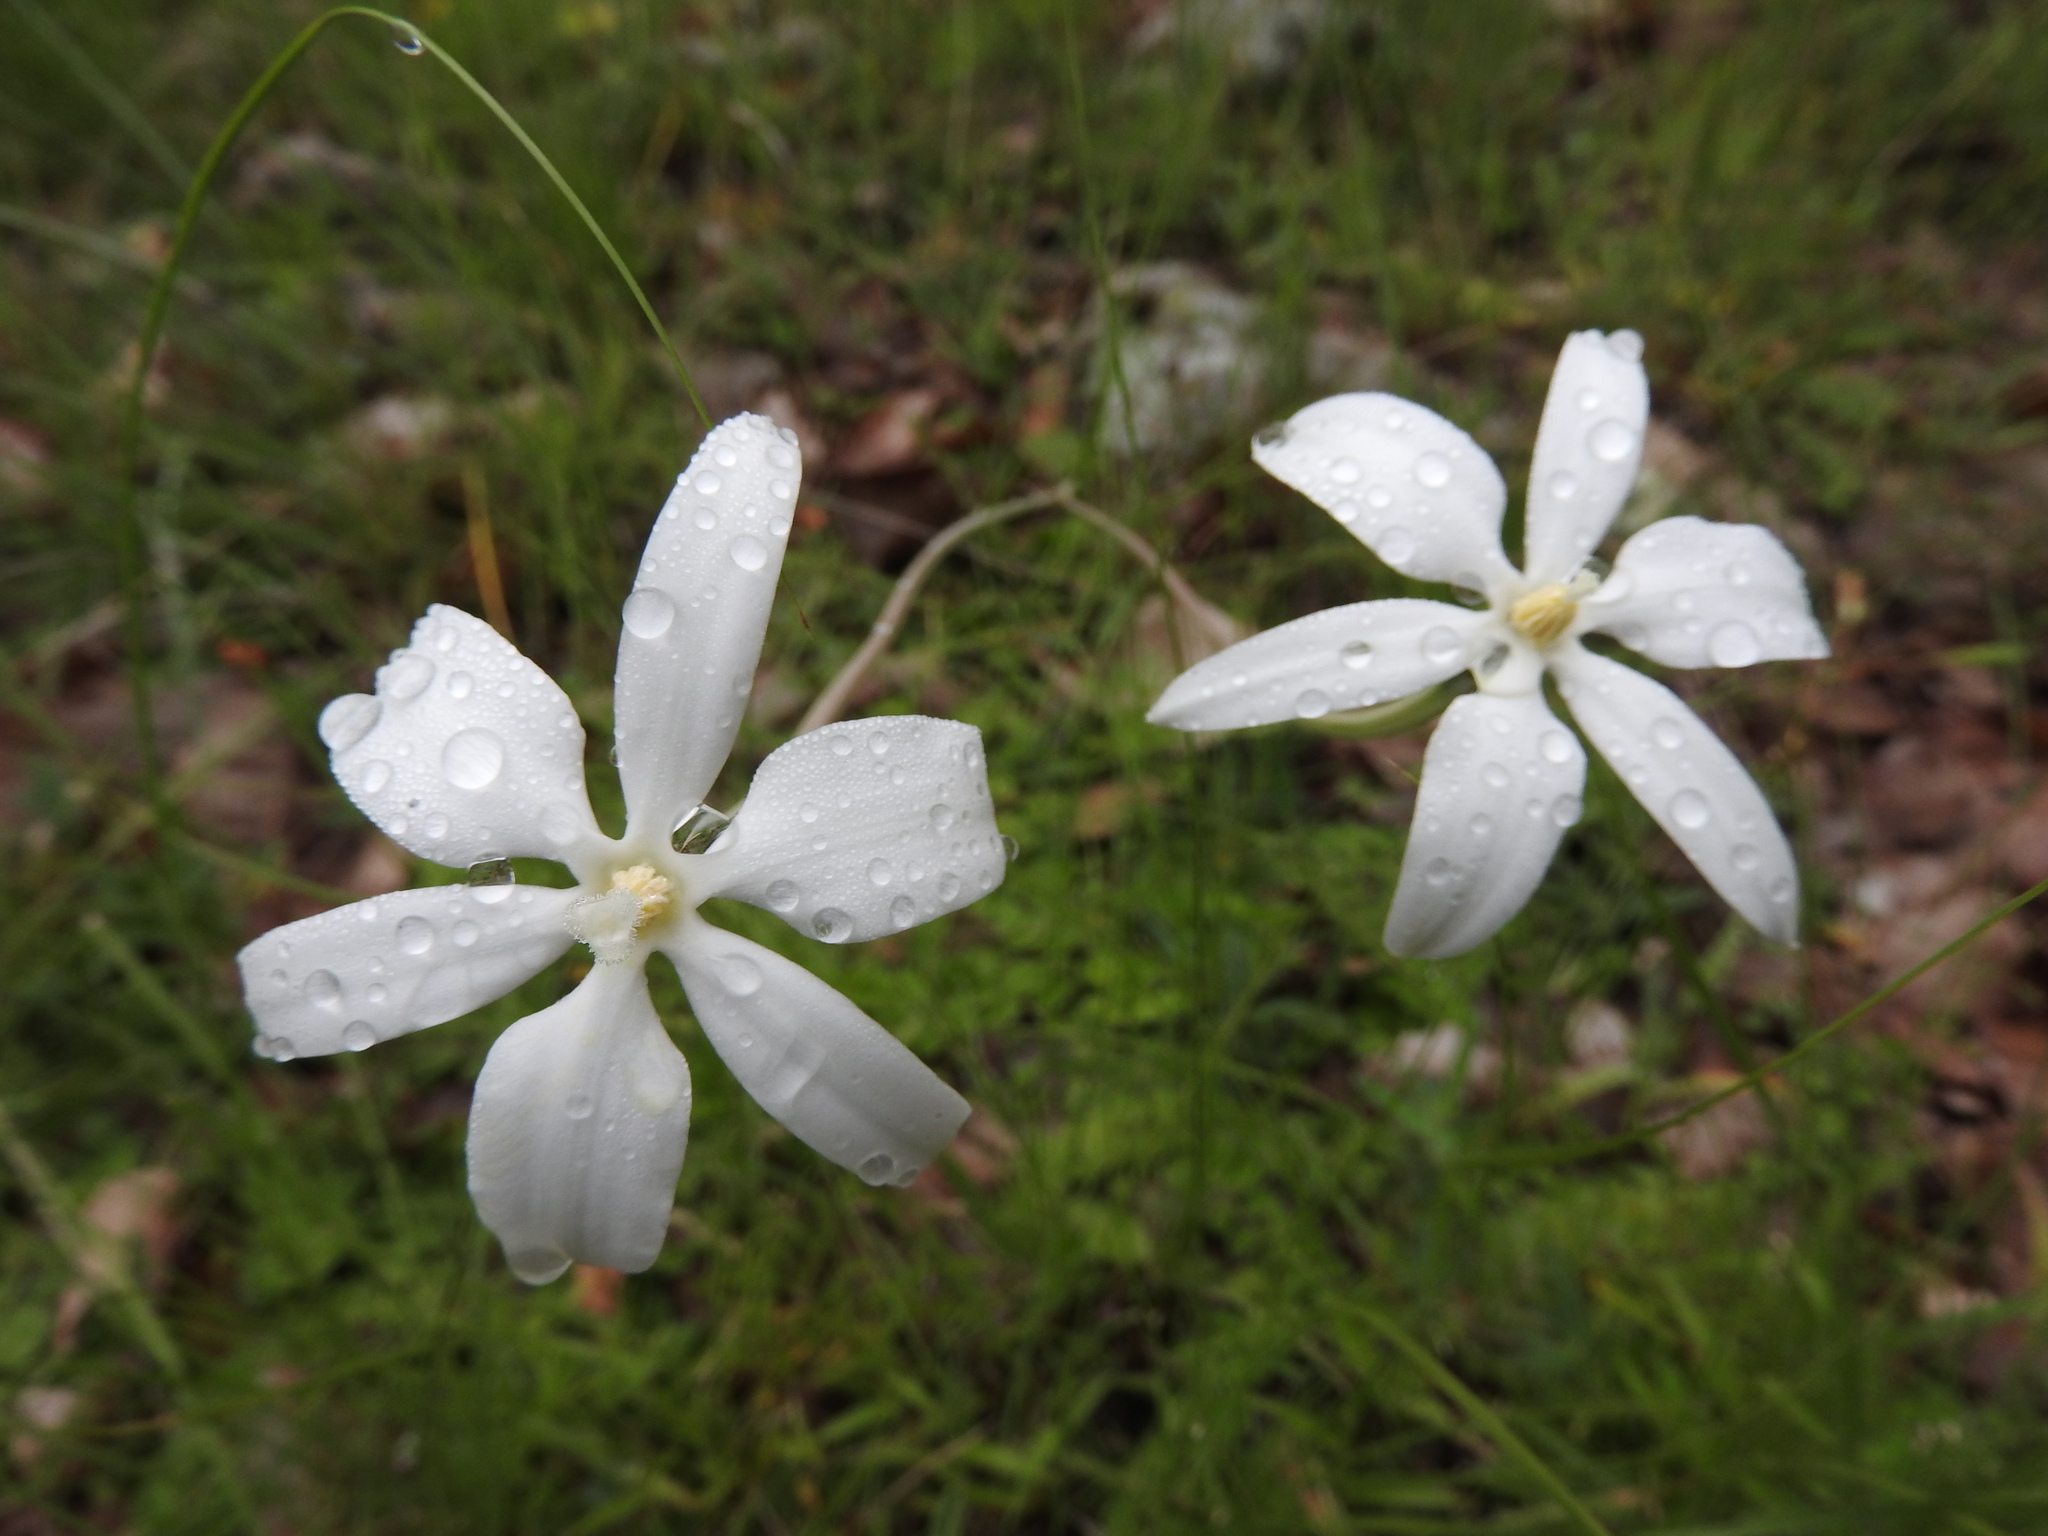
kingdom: Plantae
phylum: Tracheophyta
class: Liliopsida
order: Asparagales
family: Asparagaceae
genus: Milla
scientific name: Milla biflora
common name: Mexican-star
